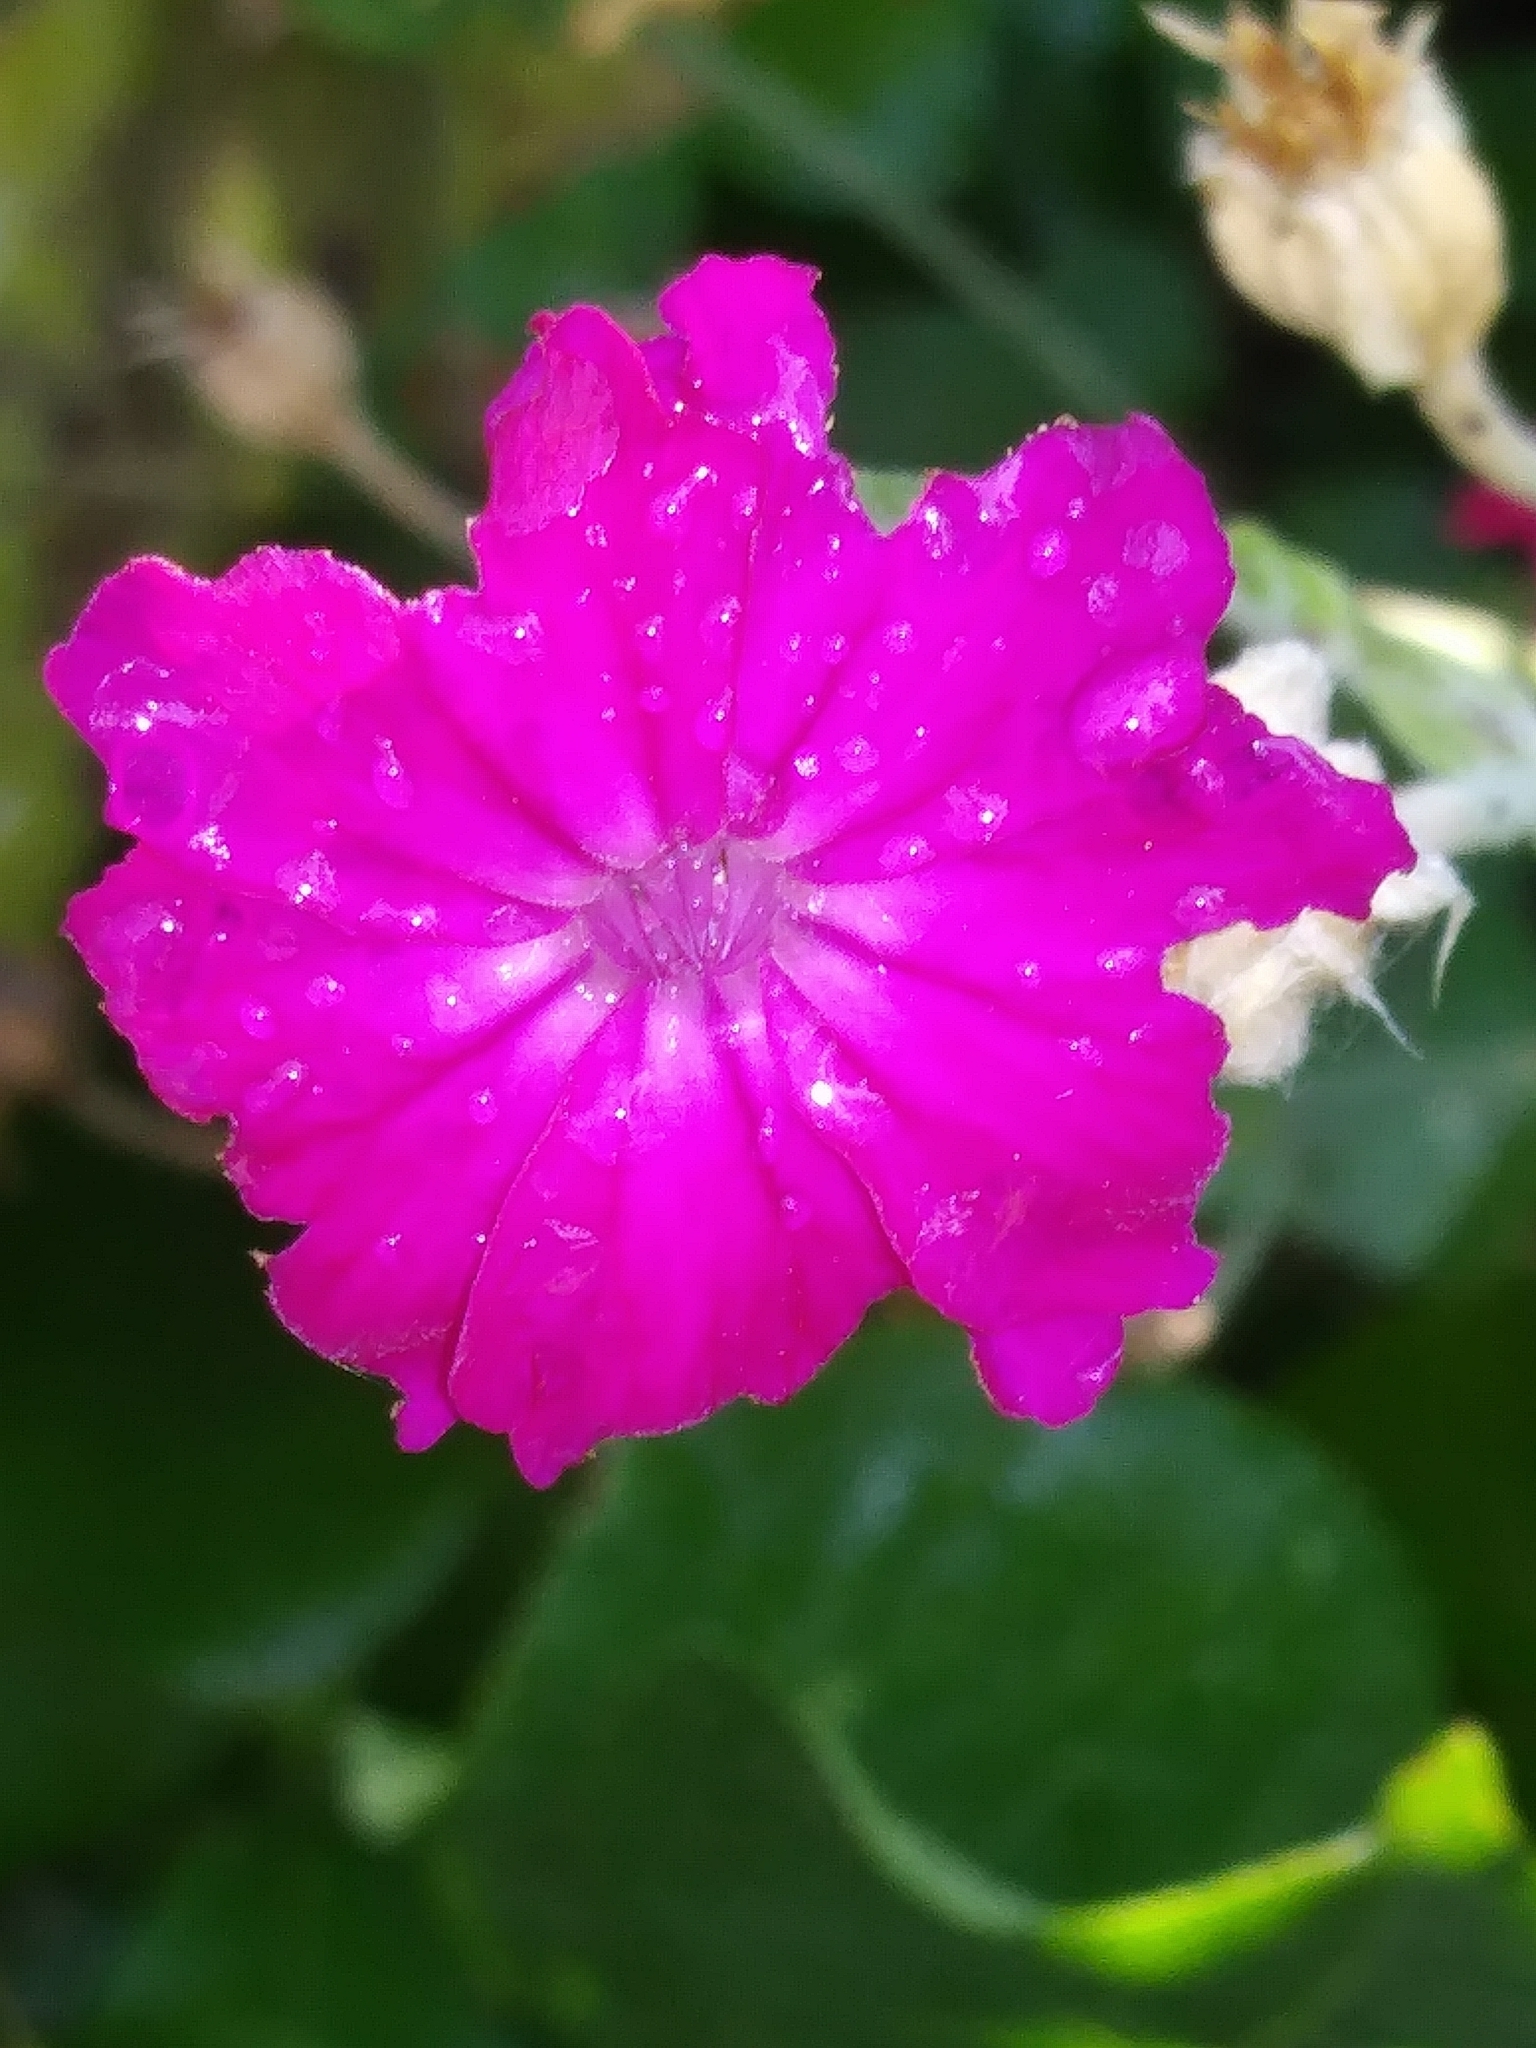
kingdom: Plantae
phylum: Tracheophyta
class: Magnoliopsida
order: Caryophyllales
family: Caryophyllaceae
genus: Silene
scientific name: Silene coronaria
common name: Rose campion
